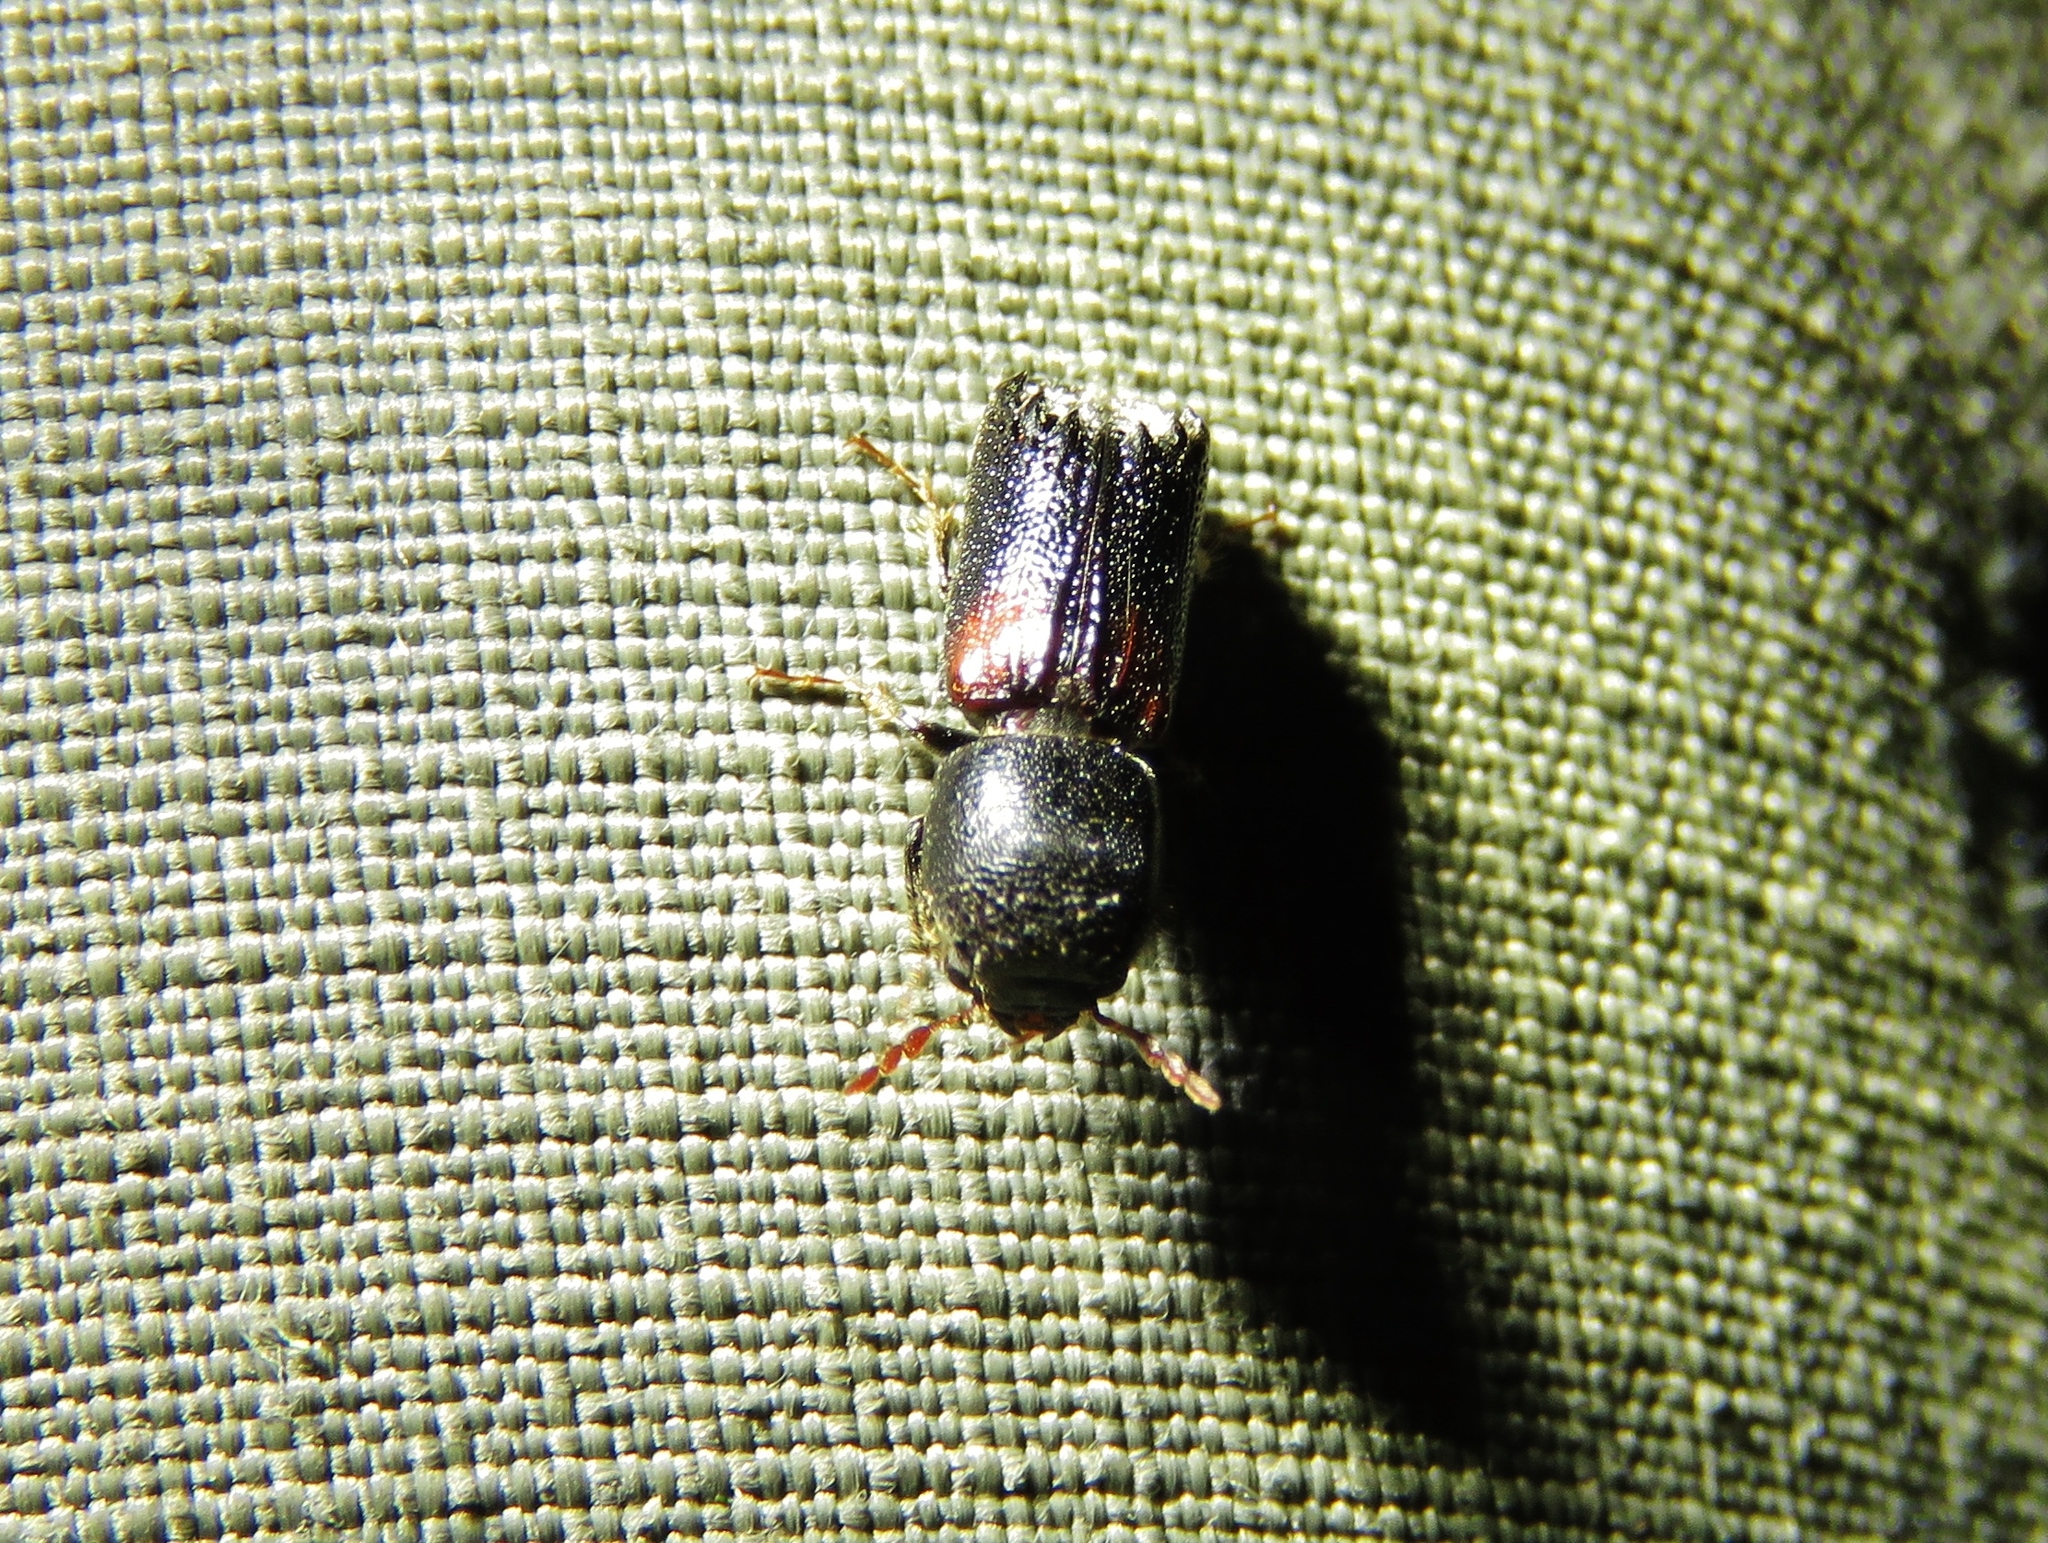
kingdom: Animalia
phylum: Arthropoda
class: Insecta
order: Coleoptera
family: Bostrichidae
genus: Xylobiops
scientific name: Xylobiops basilaris
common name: Red-shouldered bostrichid
